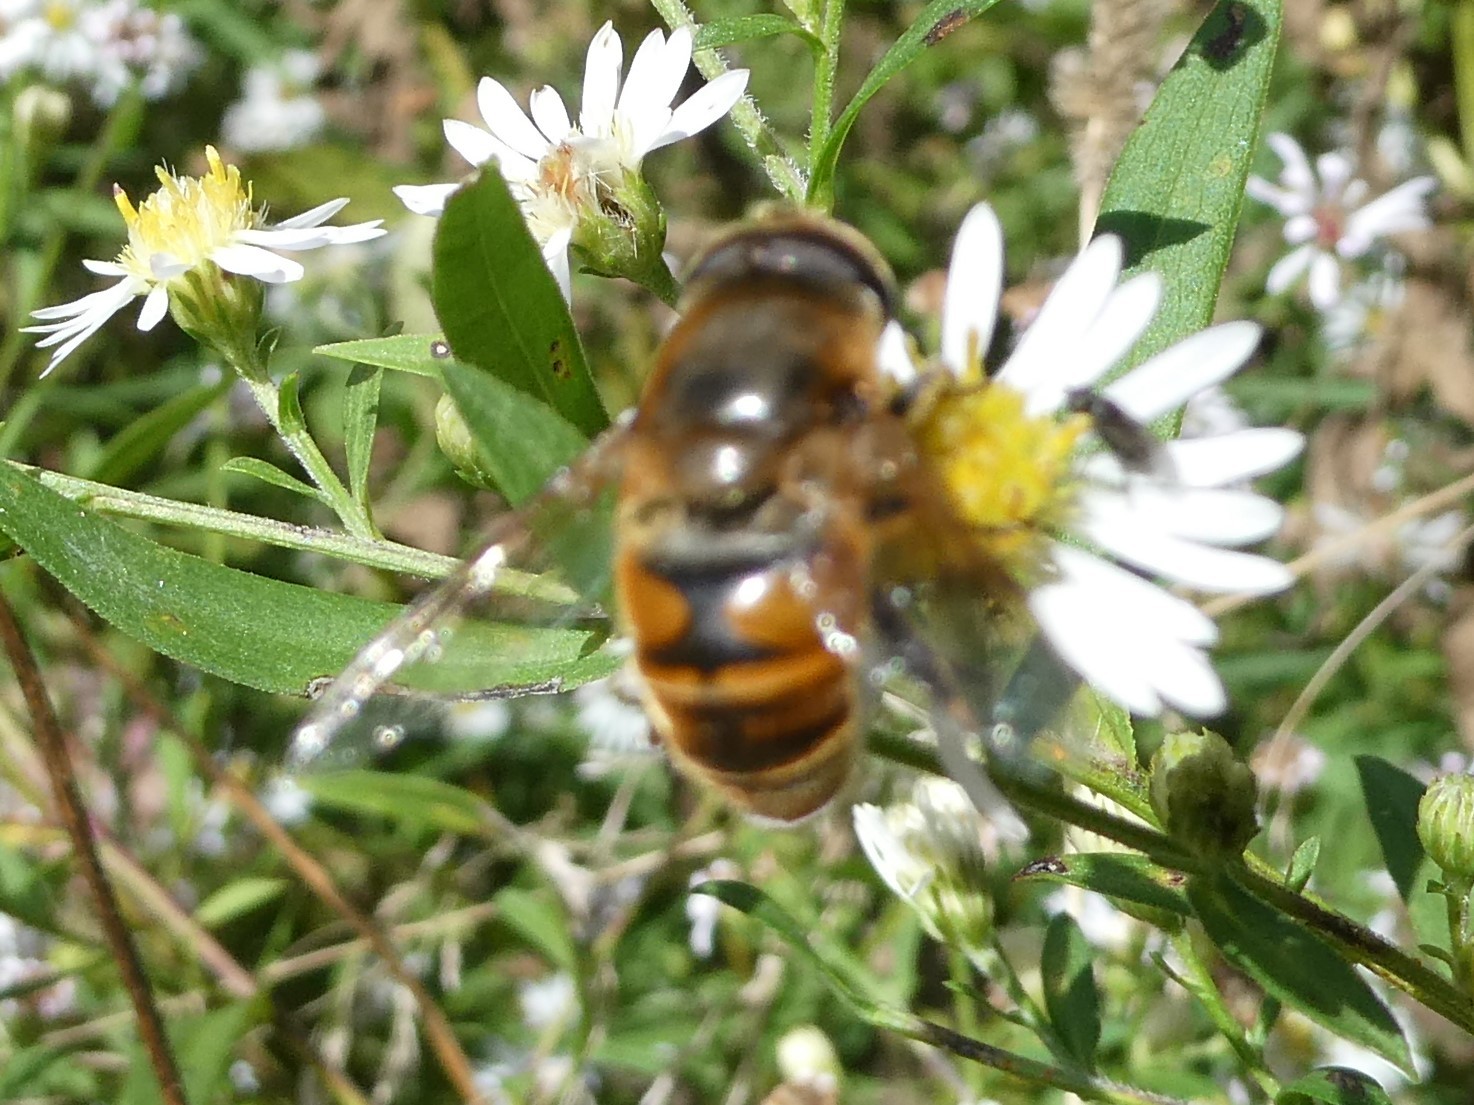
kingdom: Animalia
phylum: Arthropoda
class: Insecta
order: Diptera
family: Syrphidae
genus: Eristalis
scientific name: Eristalis tenax
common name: Drone fly
